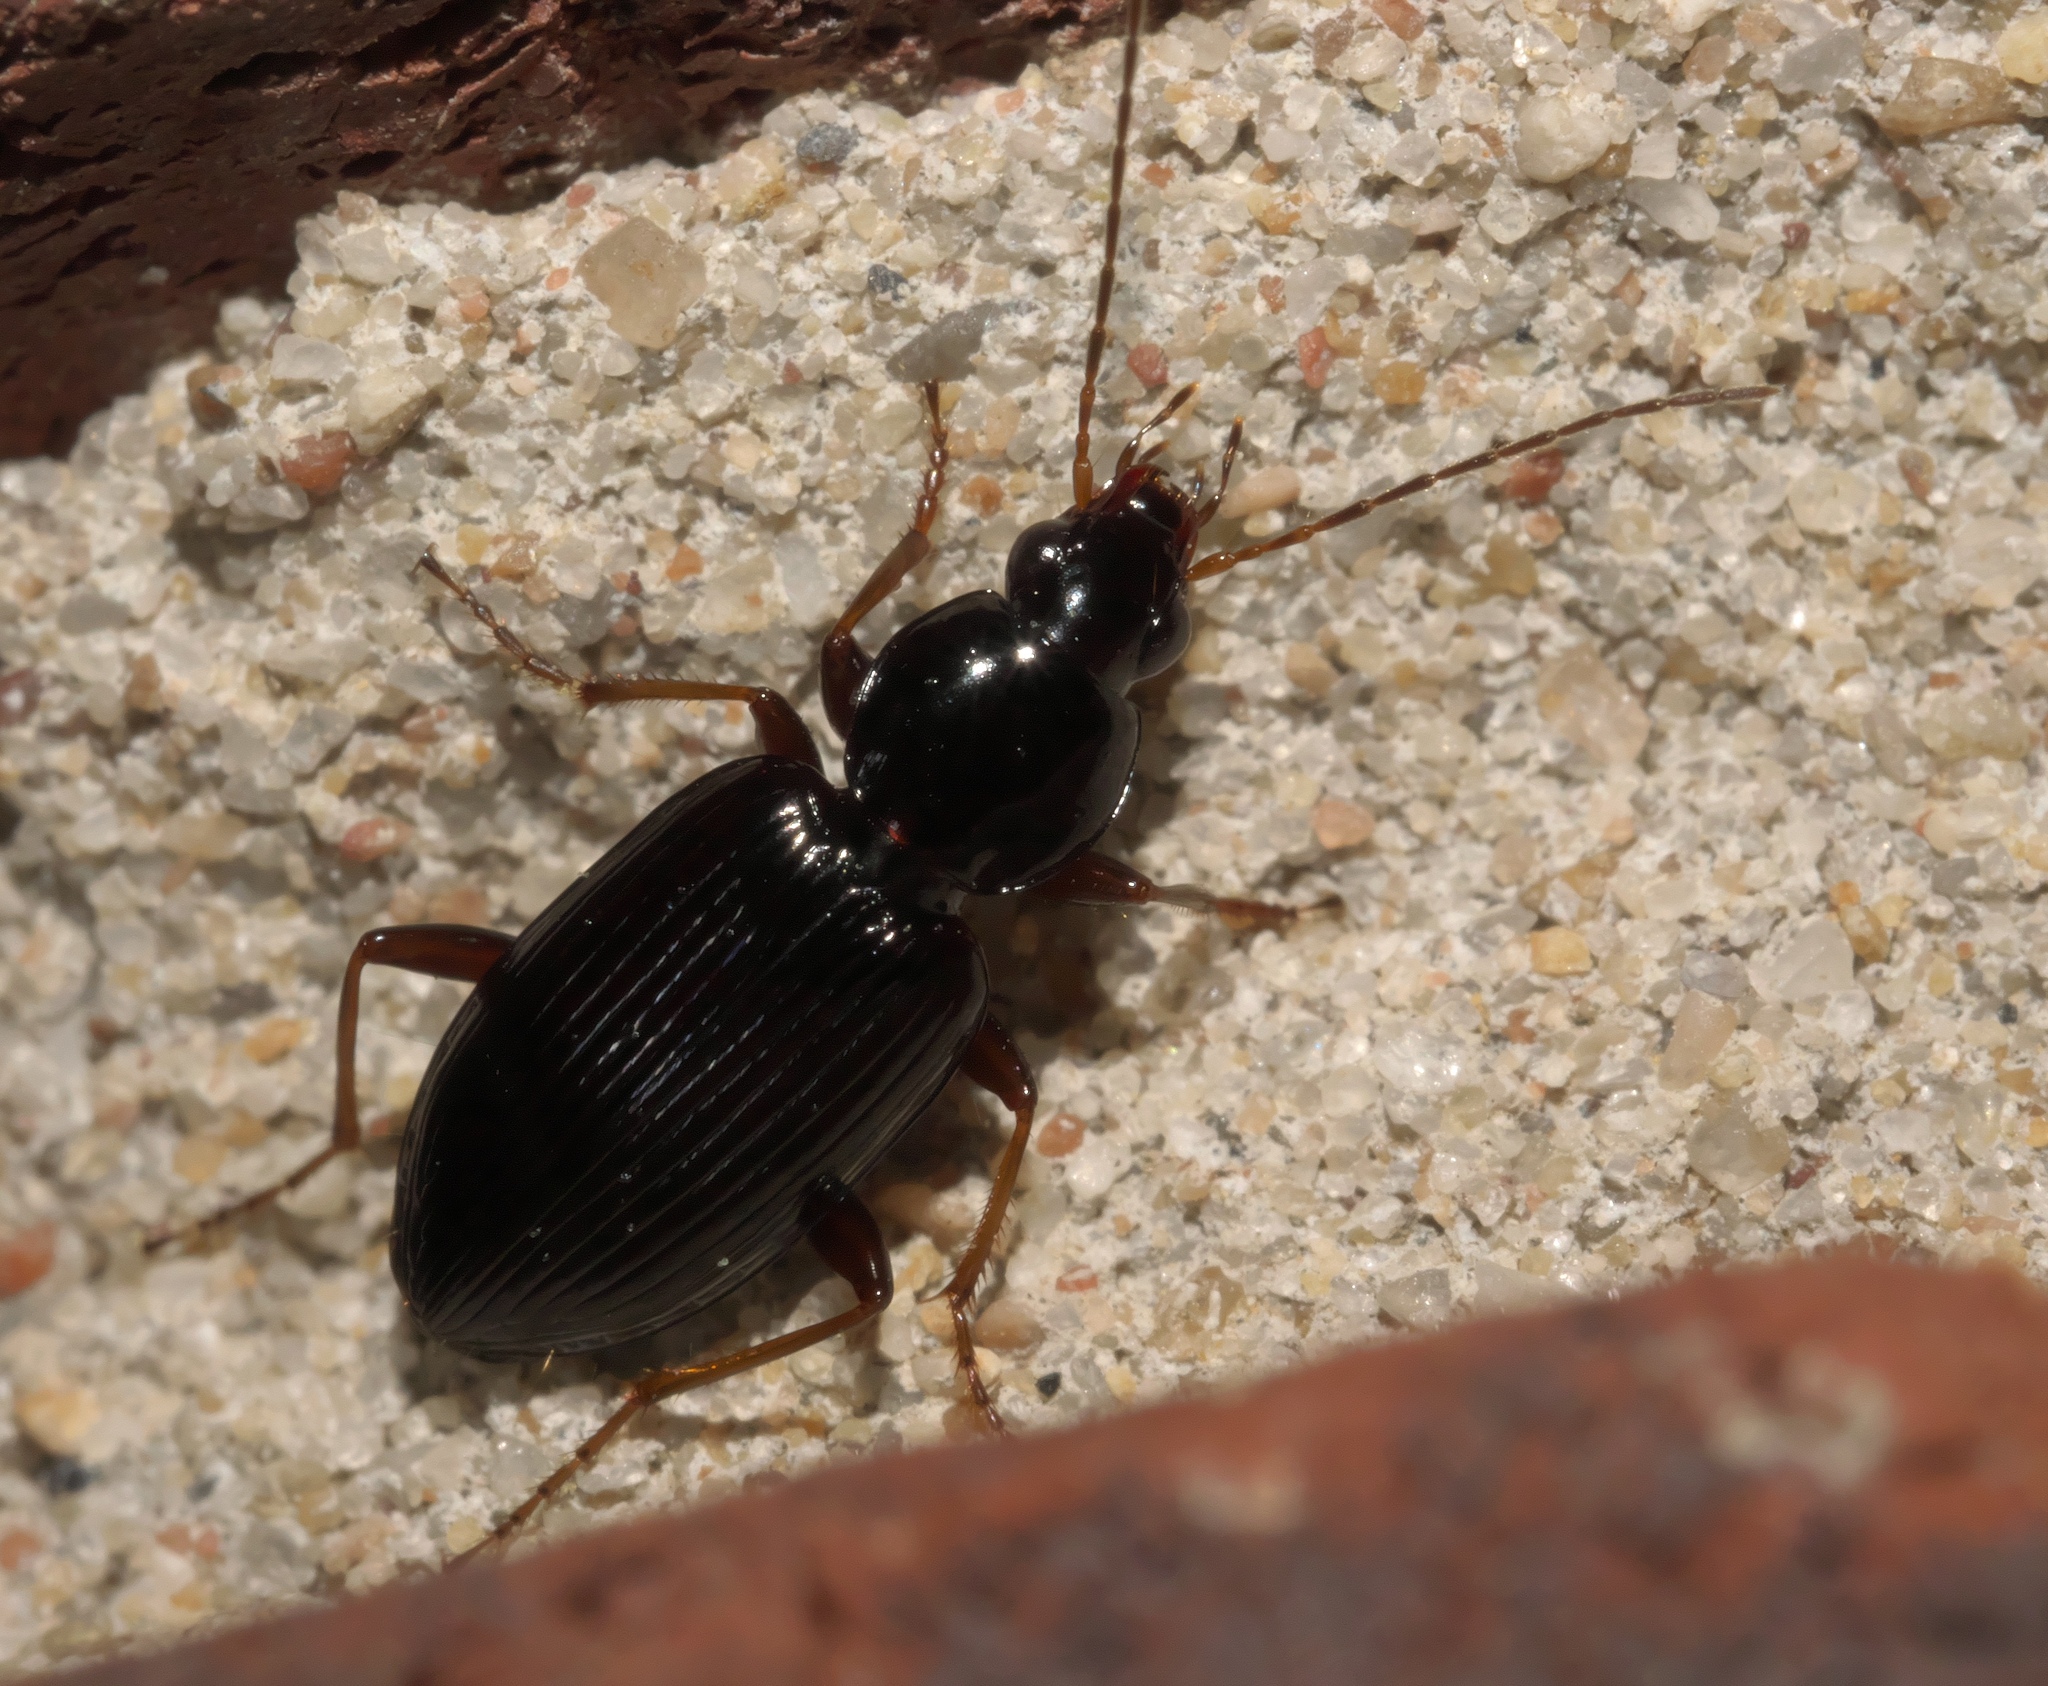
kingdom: Animalia
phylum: Arthropoda
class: Insecta
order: Coleoptera
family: Carabidae
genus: Agonum
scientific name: Agonum punctiforme
